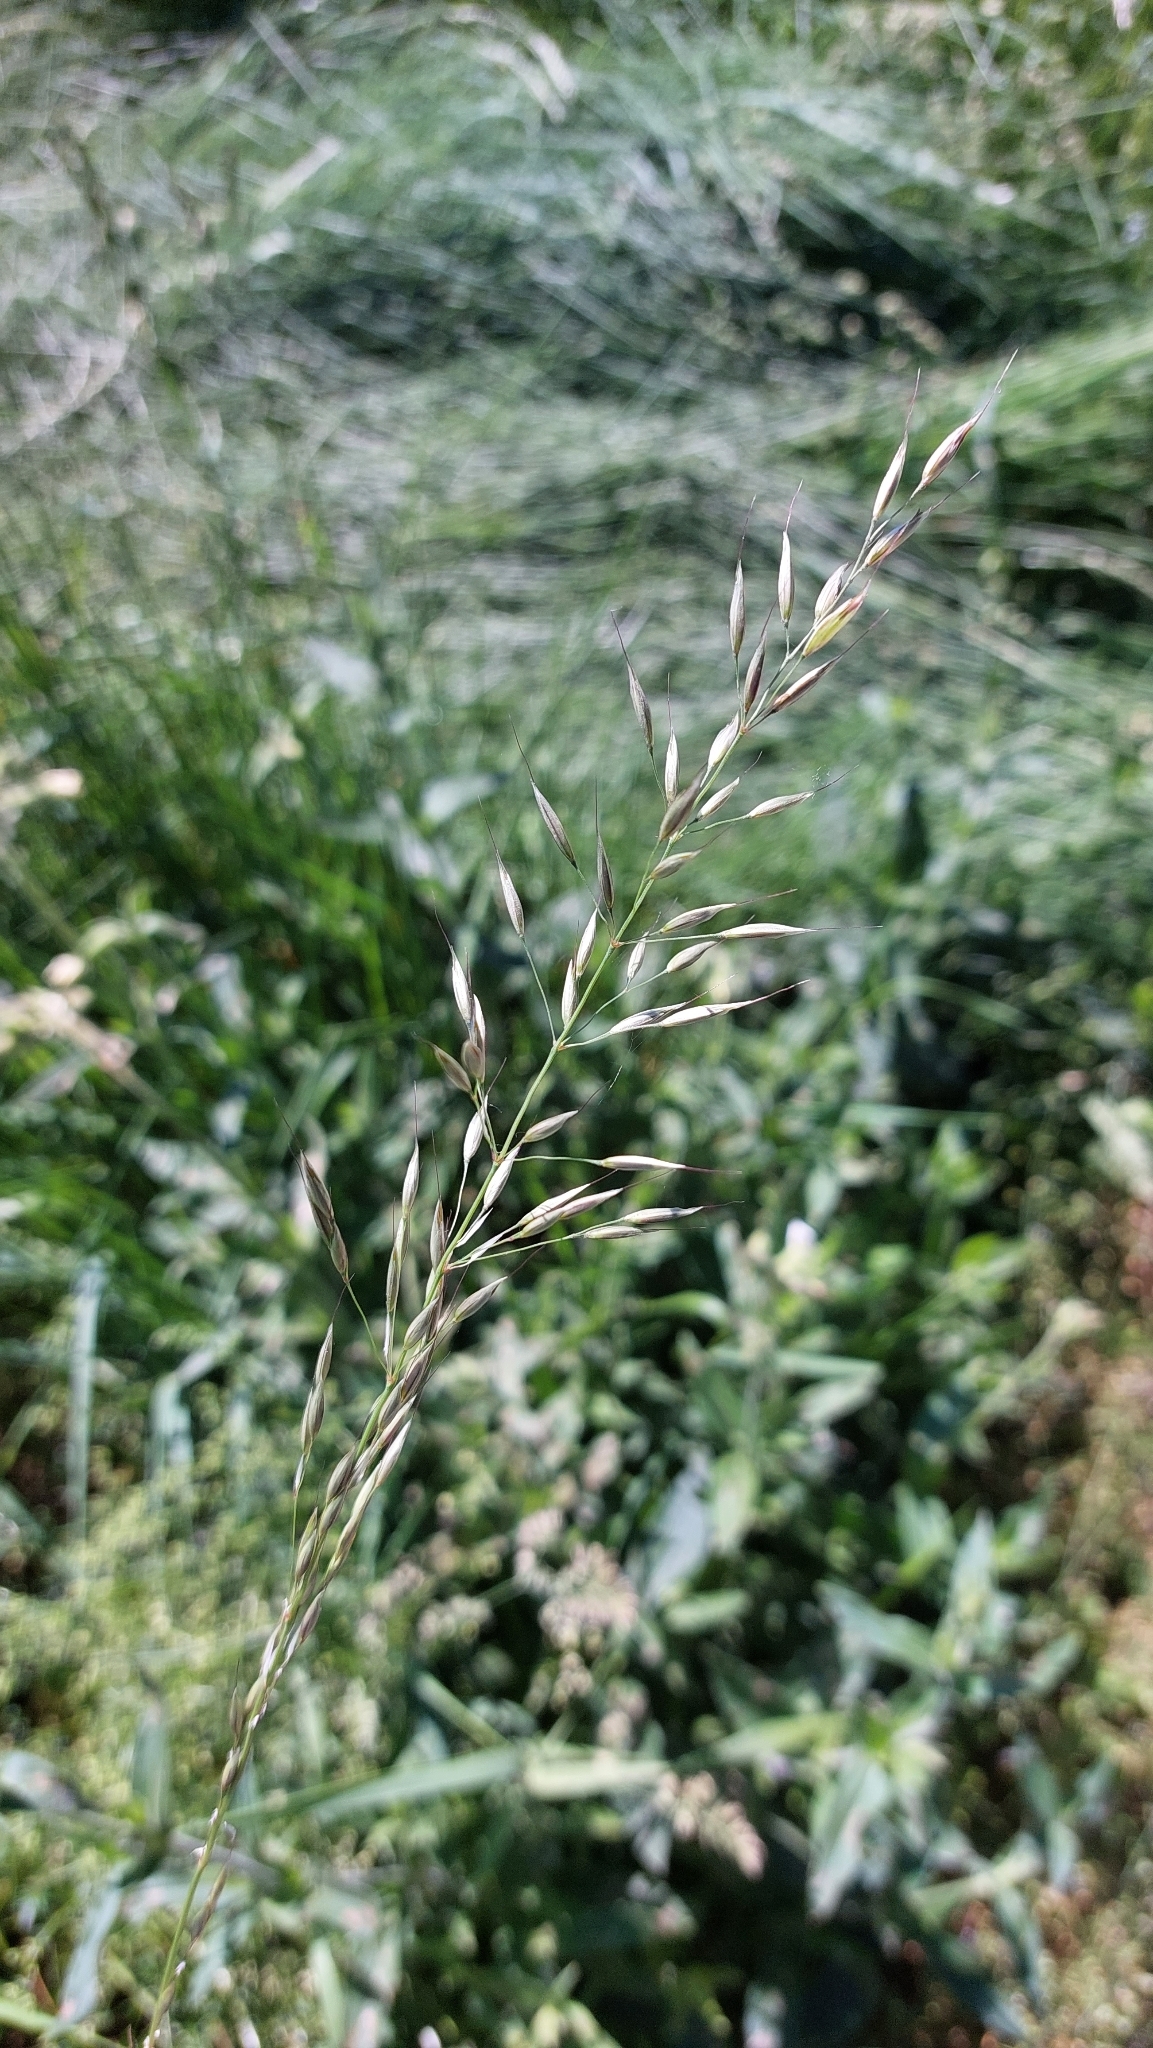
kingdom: Plantae
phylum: Tracheophyta
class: Liliopsida
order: Poales
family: Poaceae
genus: Arrhenatherum
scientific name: Arrhenatherum elatius
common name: Tall oatgrass
